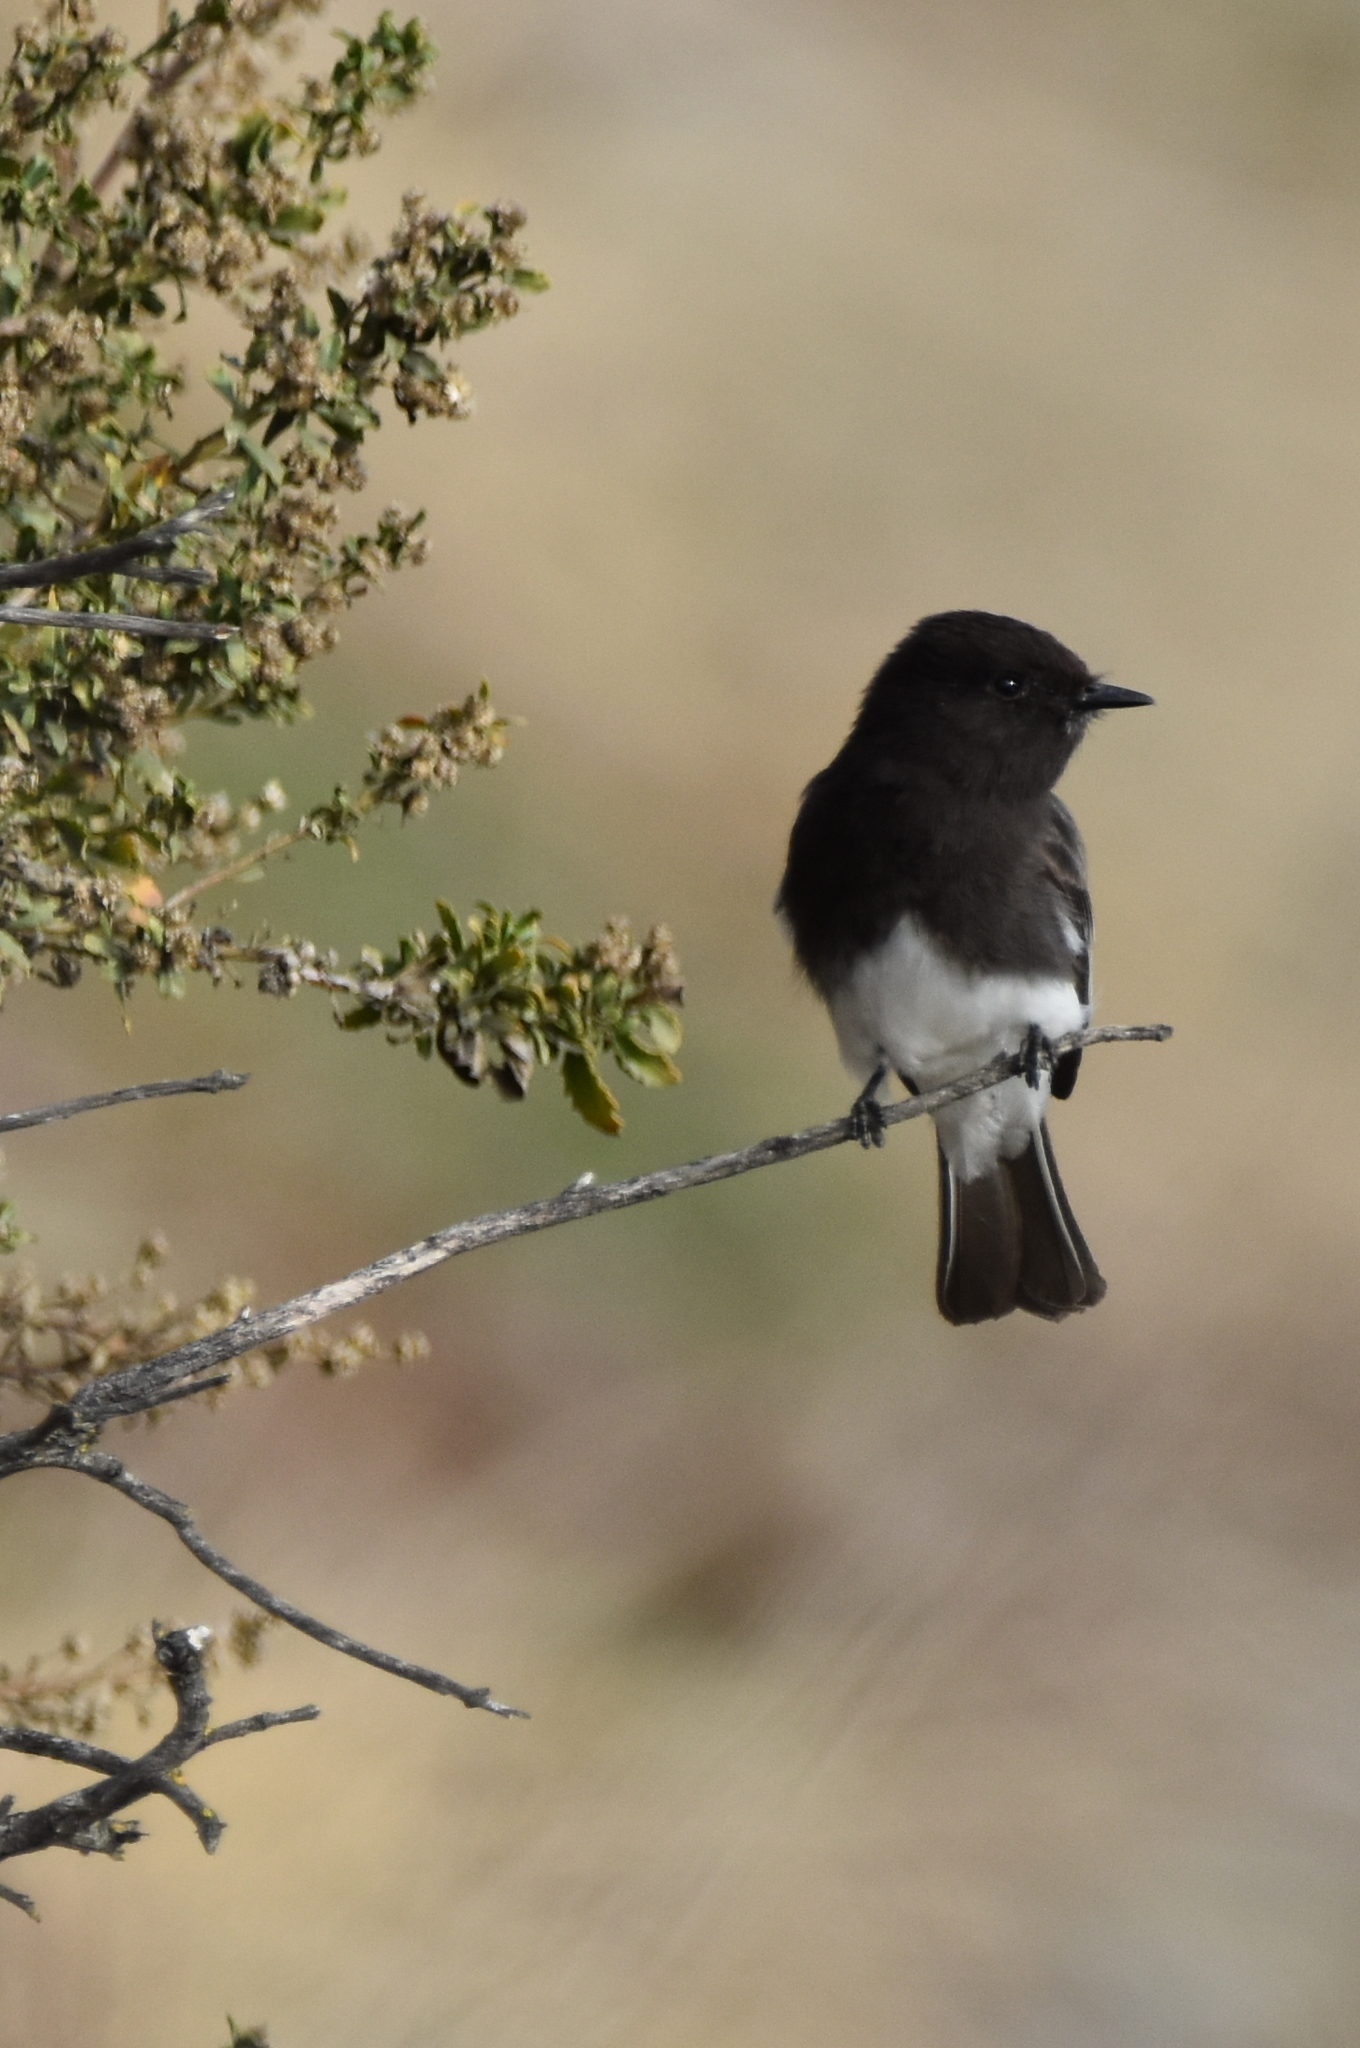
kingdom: Animalia
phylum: Chordata
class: Aves
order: Passeriformes
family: Tyrannidae
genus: Sayornis
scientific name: Sayornis nigricans
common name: Black phoebe
